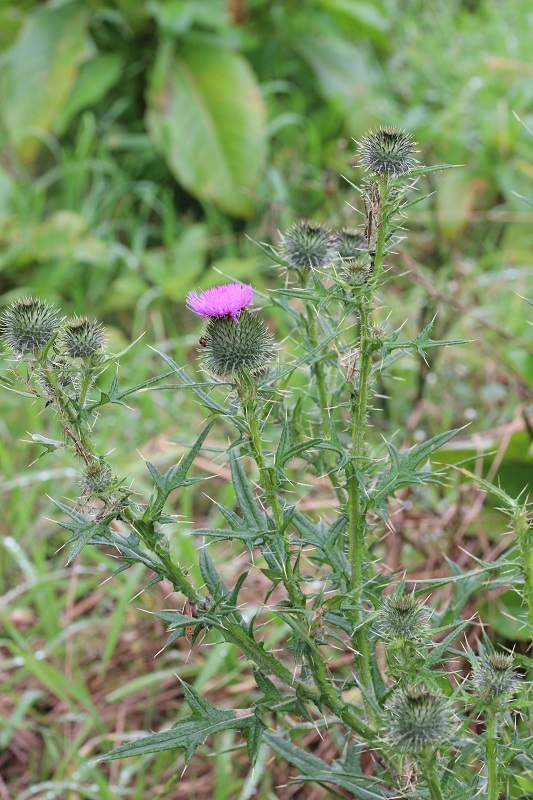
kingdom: Plantae
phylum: Tracheophyta
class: Magnoliopsida
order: Asterales
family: Asteraceae
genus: Cirsium
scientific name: Cirsium vulgare
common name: Bull thistle
